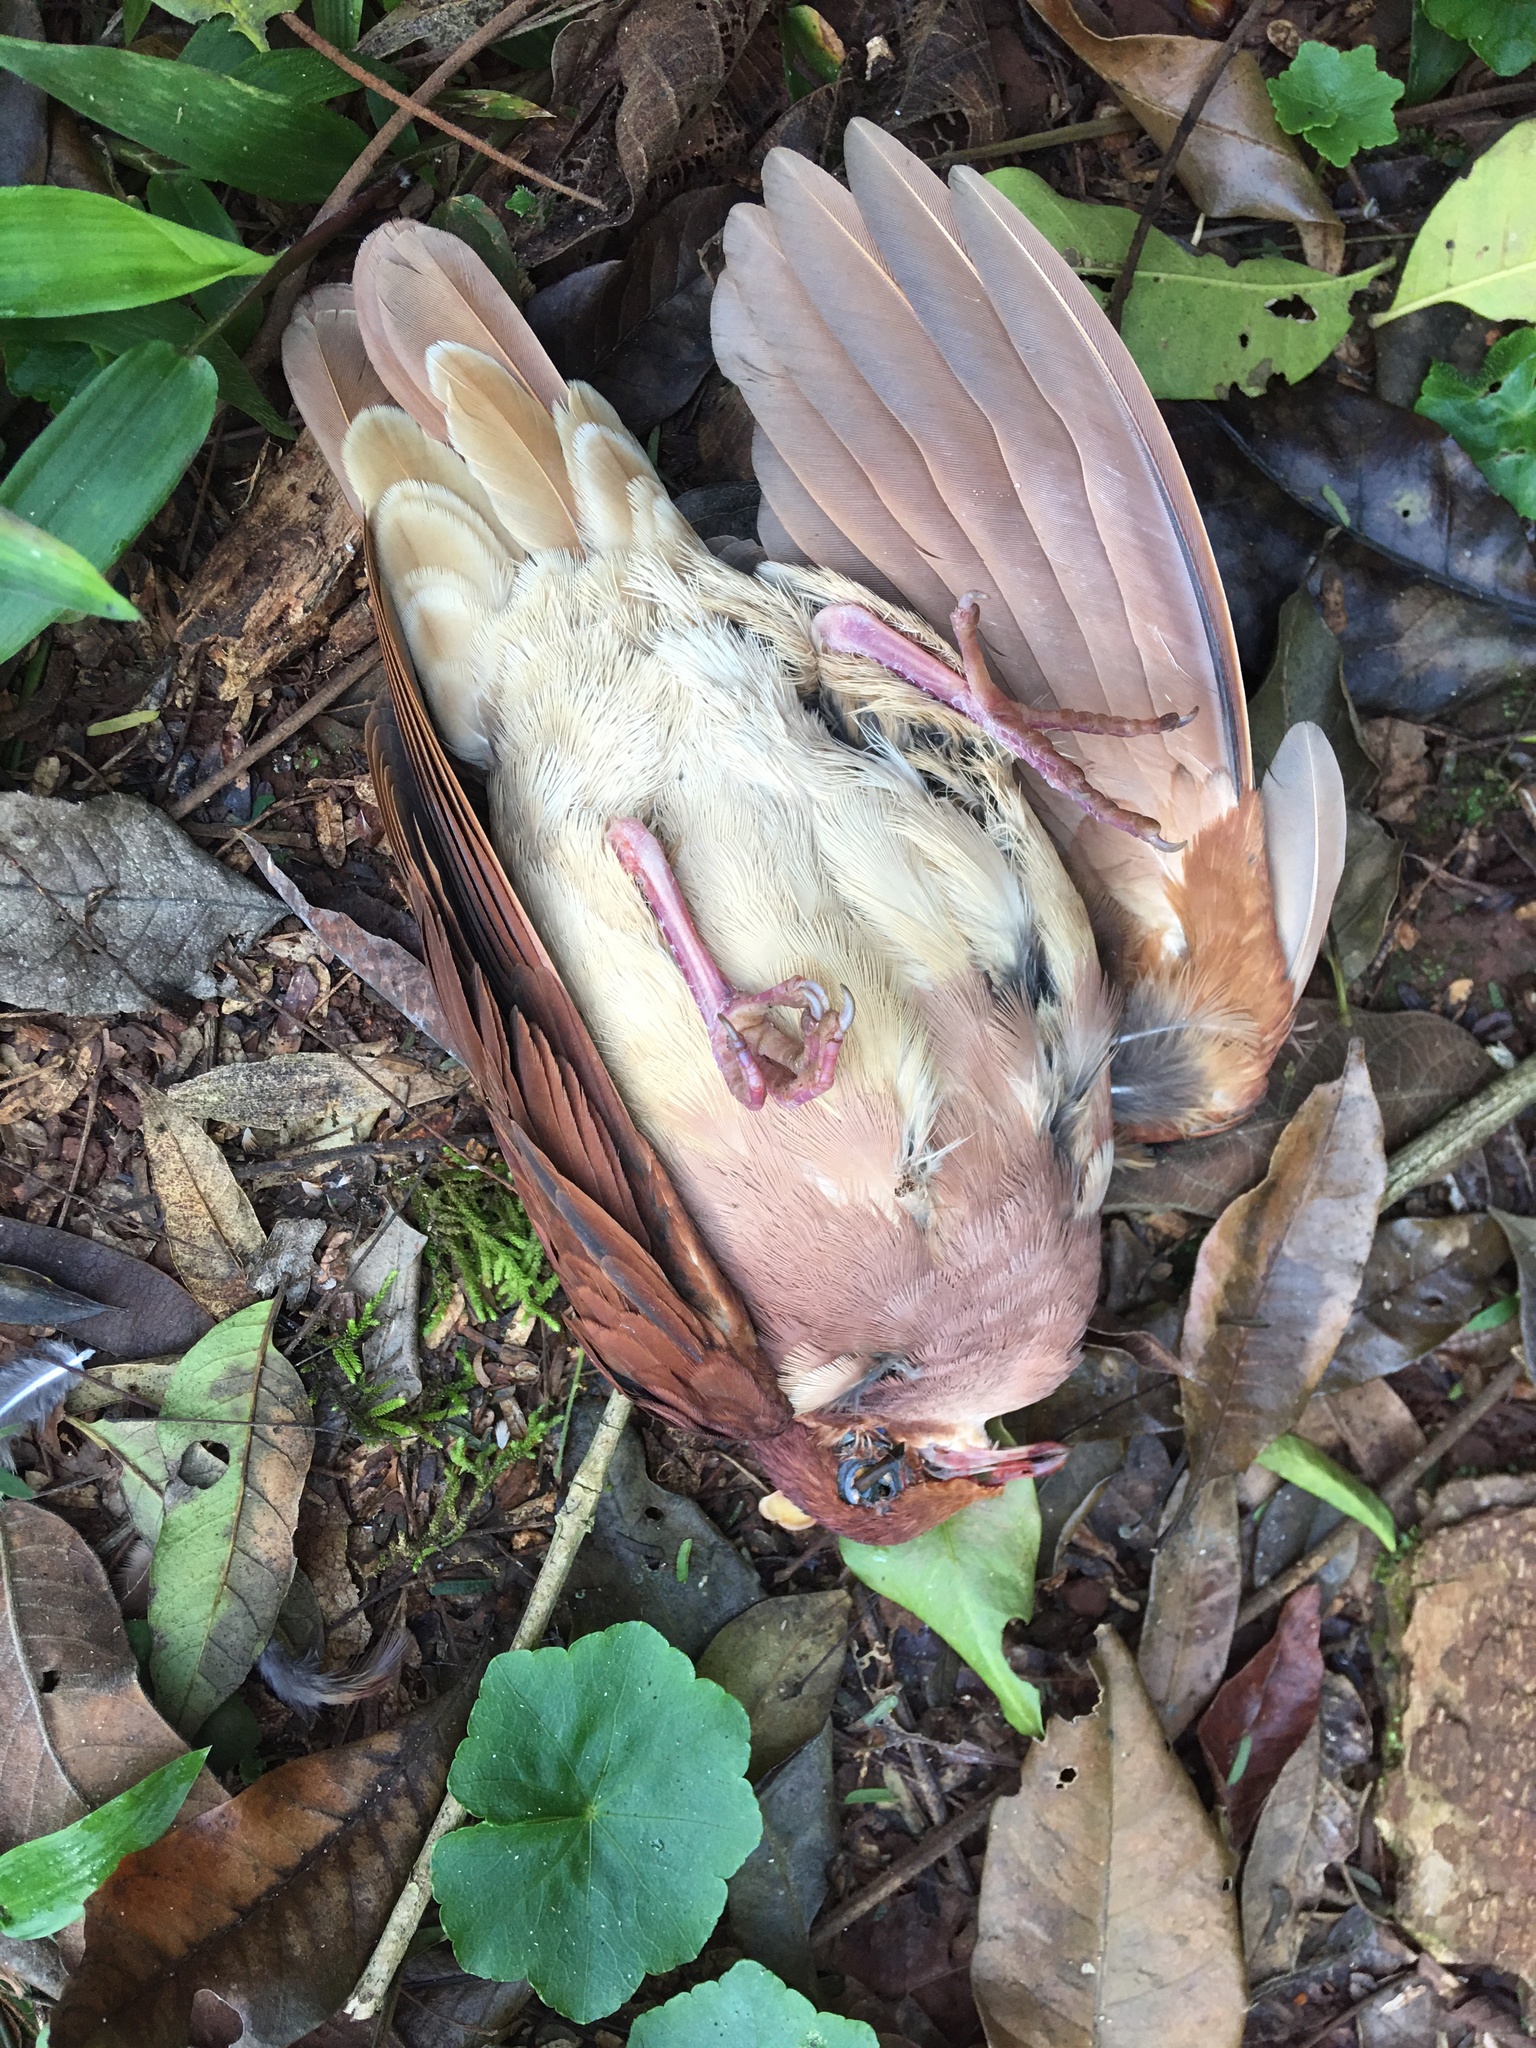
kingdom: Animalia
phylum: Chordata
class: Aves
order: Columbiformes
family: Columbidae
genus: Geotrygon
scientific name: Geotrygon montana
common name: Ruddy quail-dove
